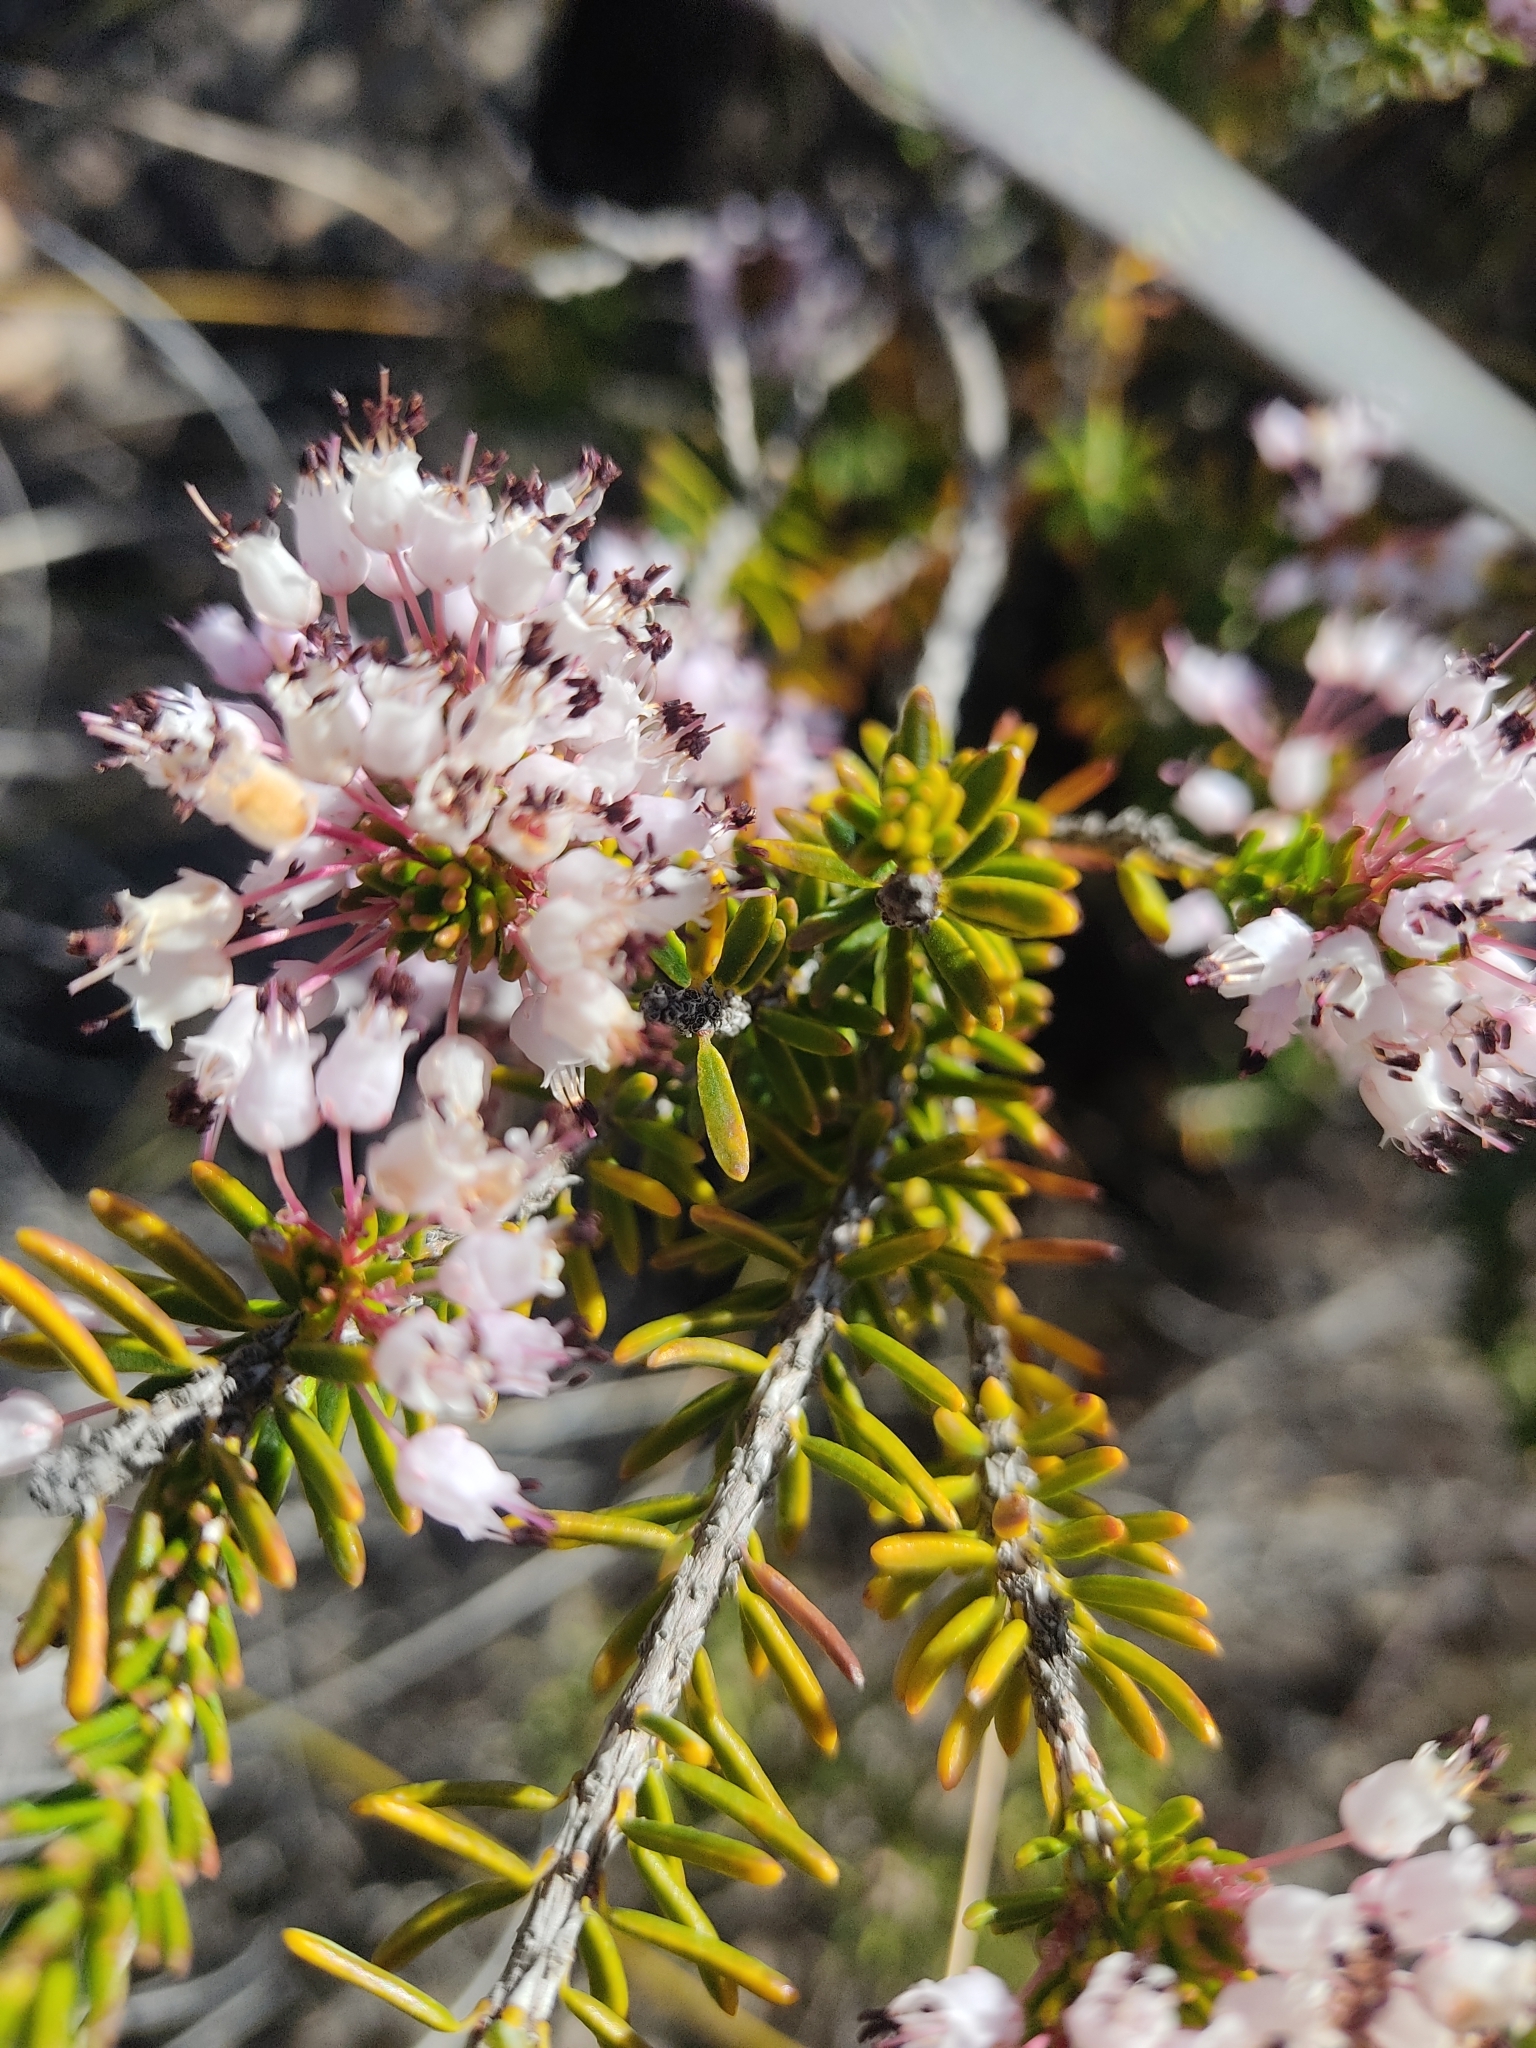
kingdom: Plantae
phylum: Tracheophyta
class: Magnoliopsida
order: Ericales
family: Ericaceae
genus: Erica
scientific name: Erica multiflora
